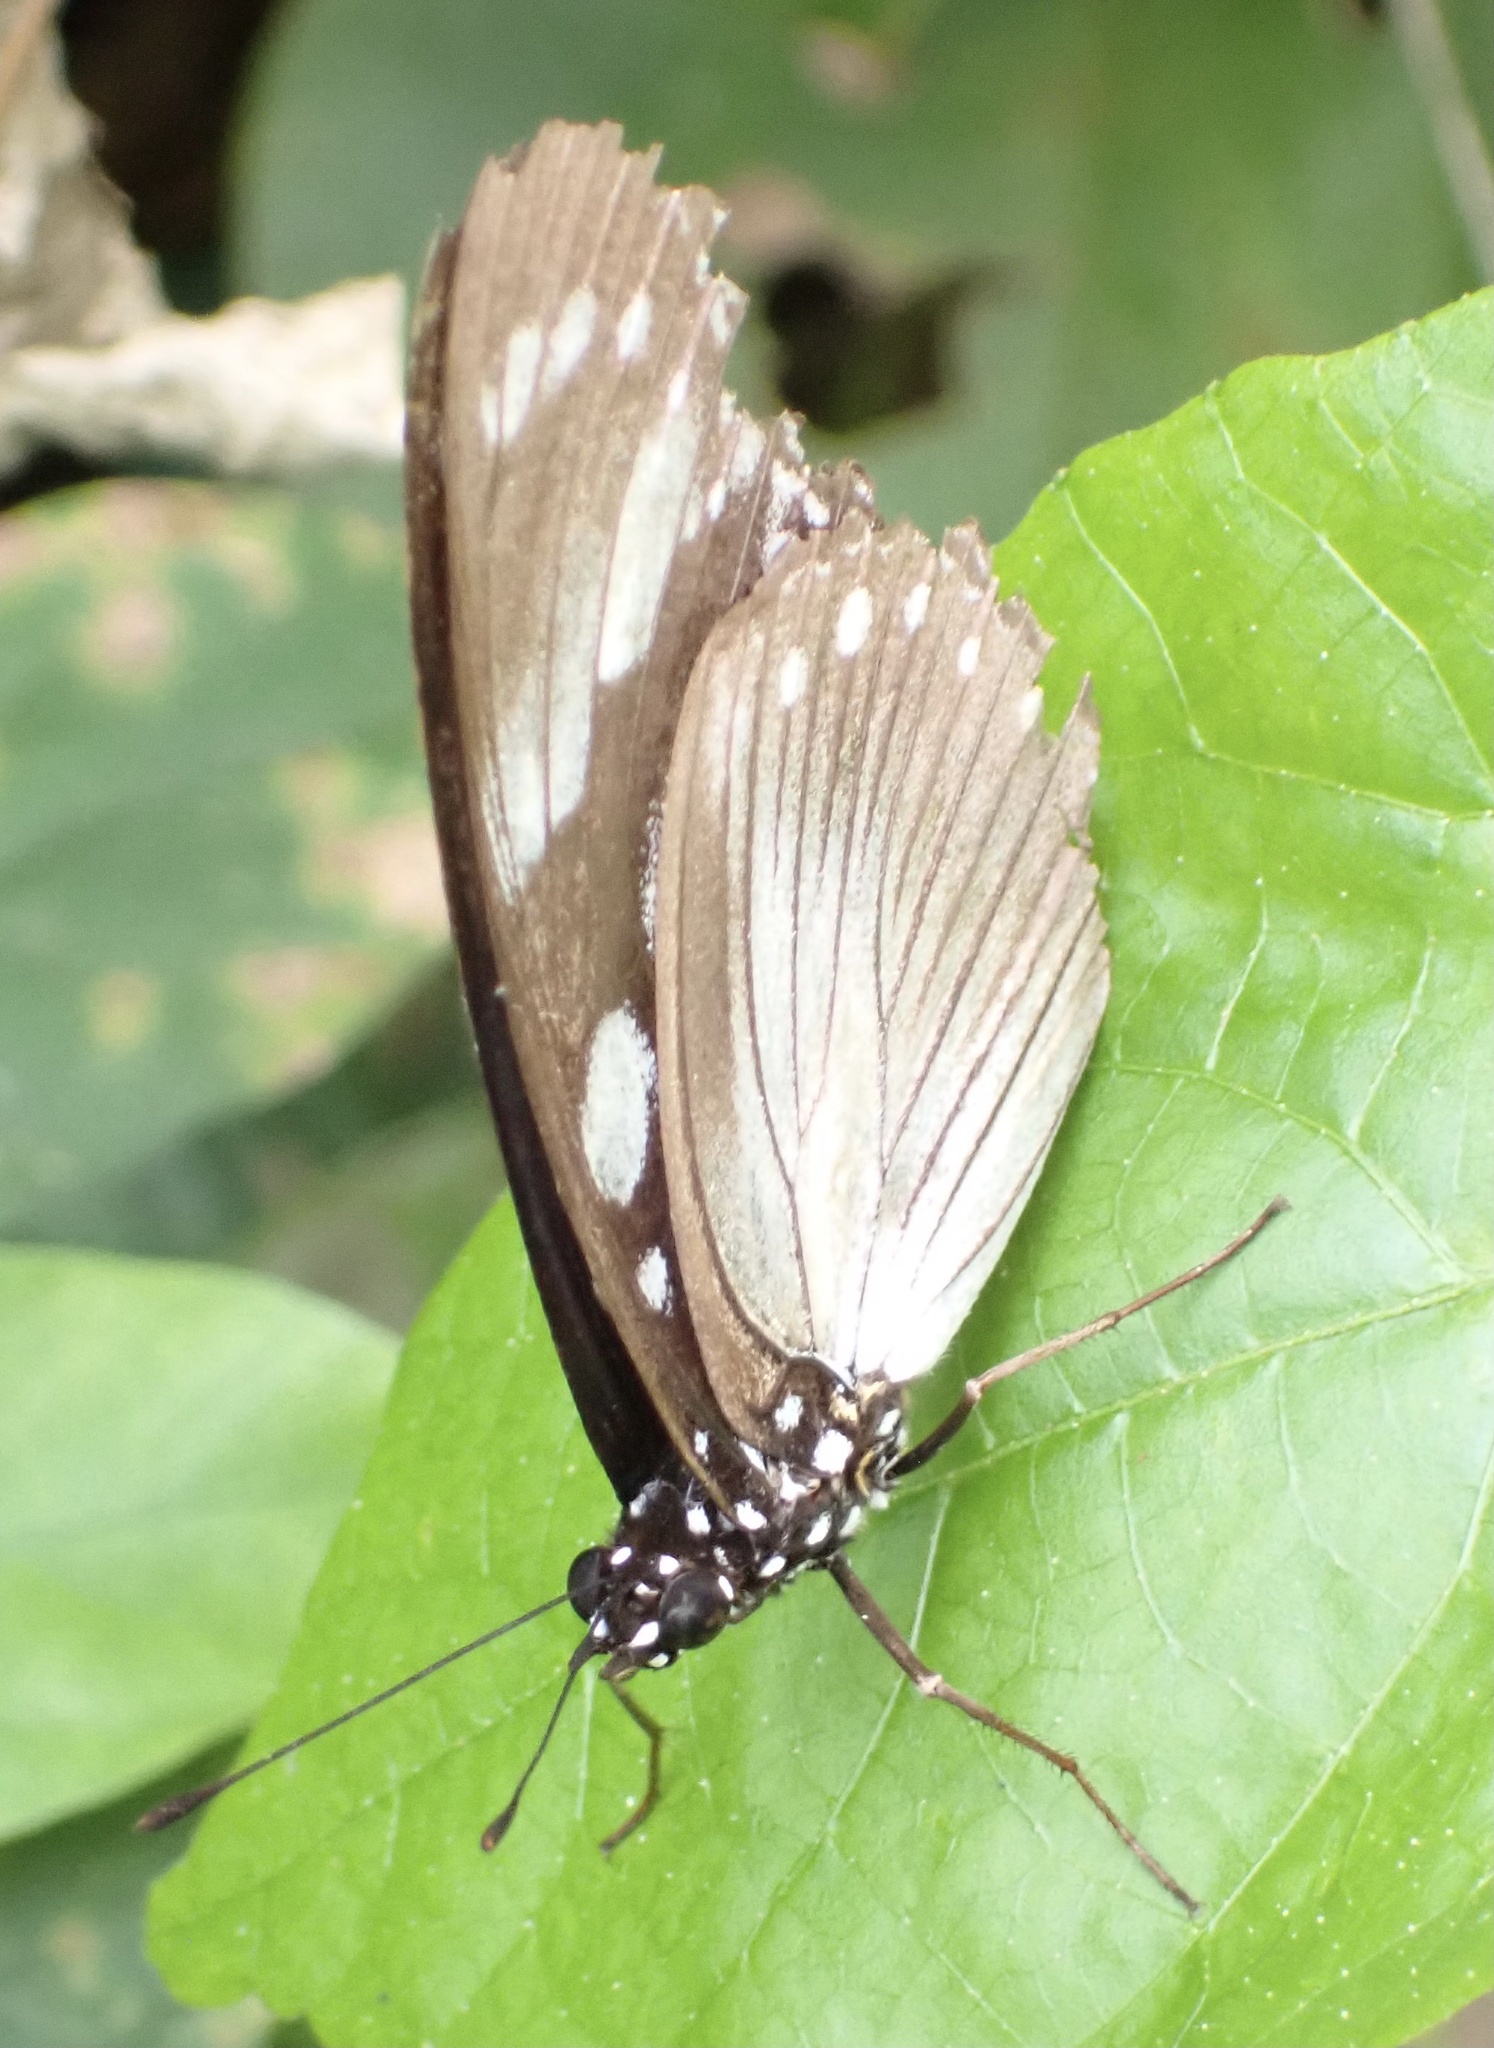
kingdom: Animalia
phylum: Arthropoda
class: Insecta
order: Lepidoptera
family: Nymphalidae
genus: Hypolimnas
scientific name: Hypolimnas dubius
